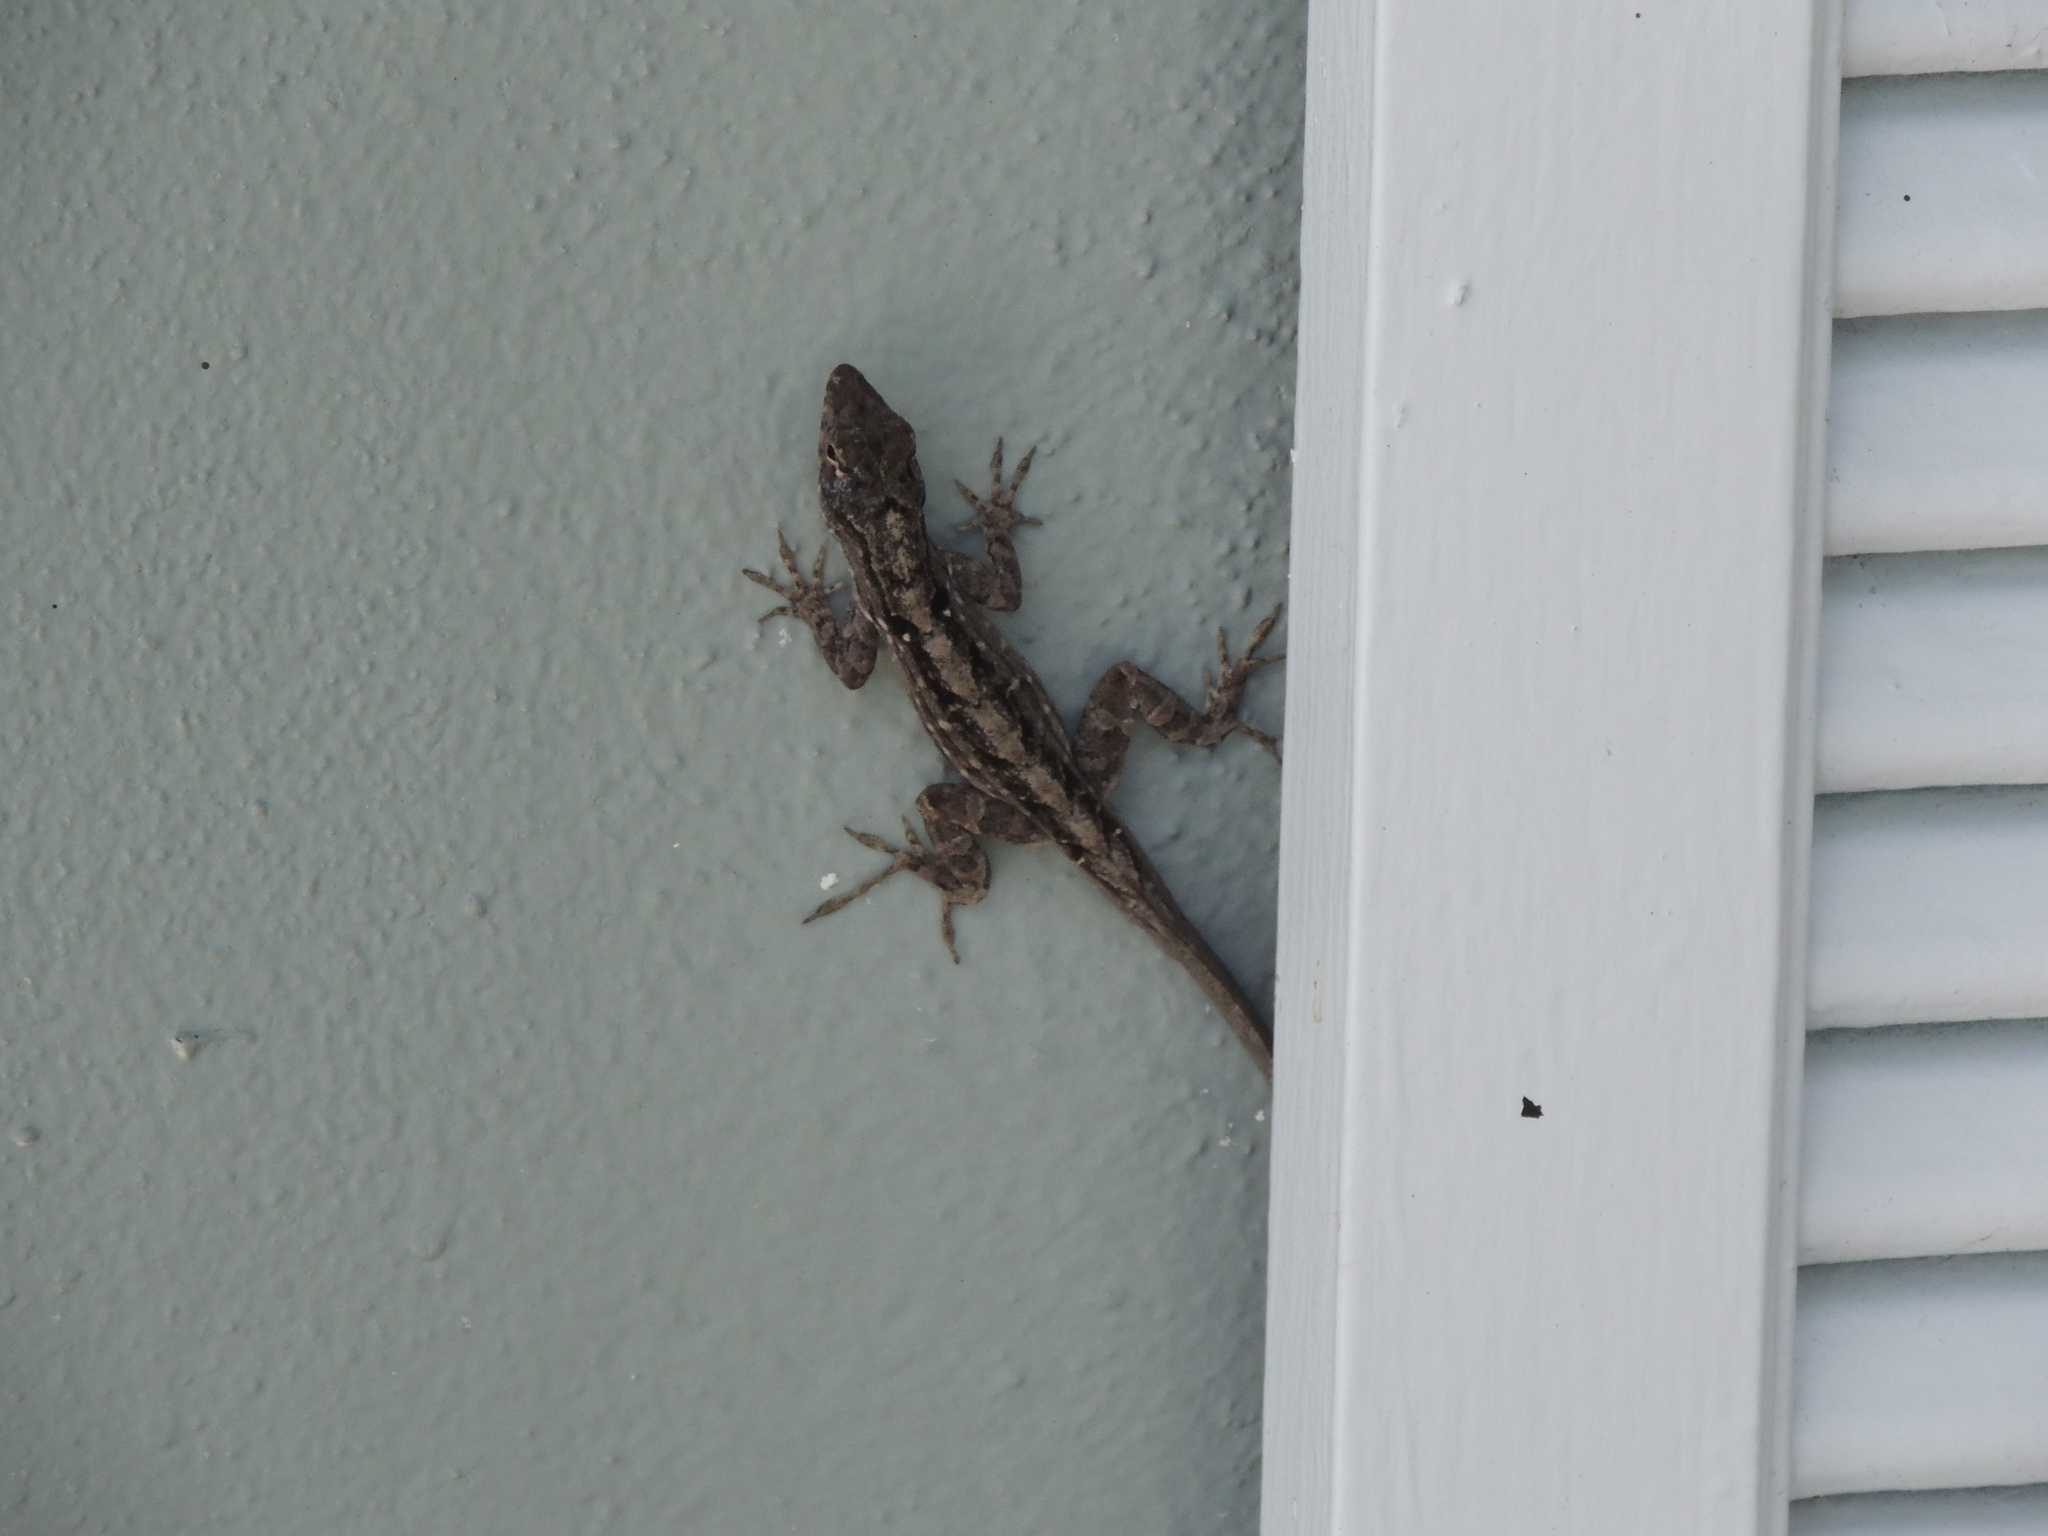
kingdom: Animalia
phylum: Chordata
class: Squamata
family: Dactyloidae
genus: Anolis
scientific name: Anolis sagrei
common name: Brown anole
